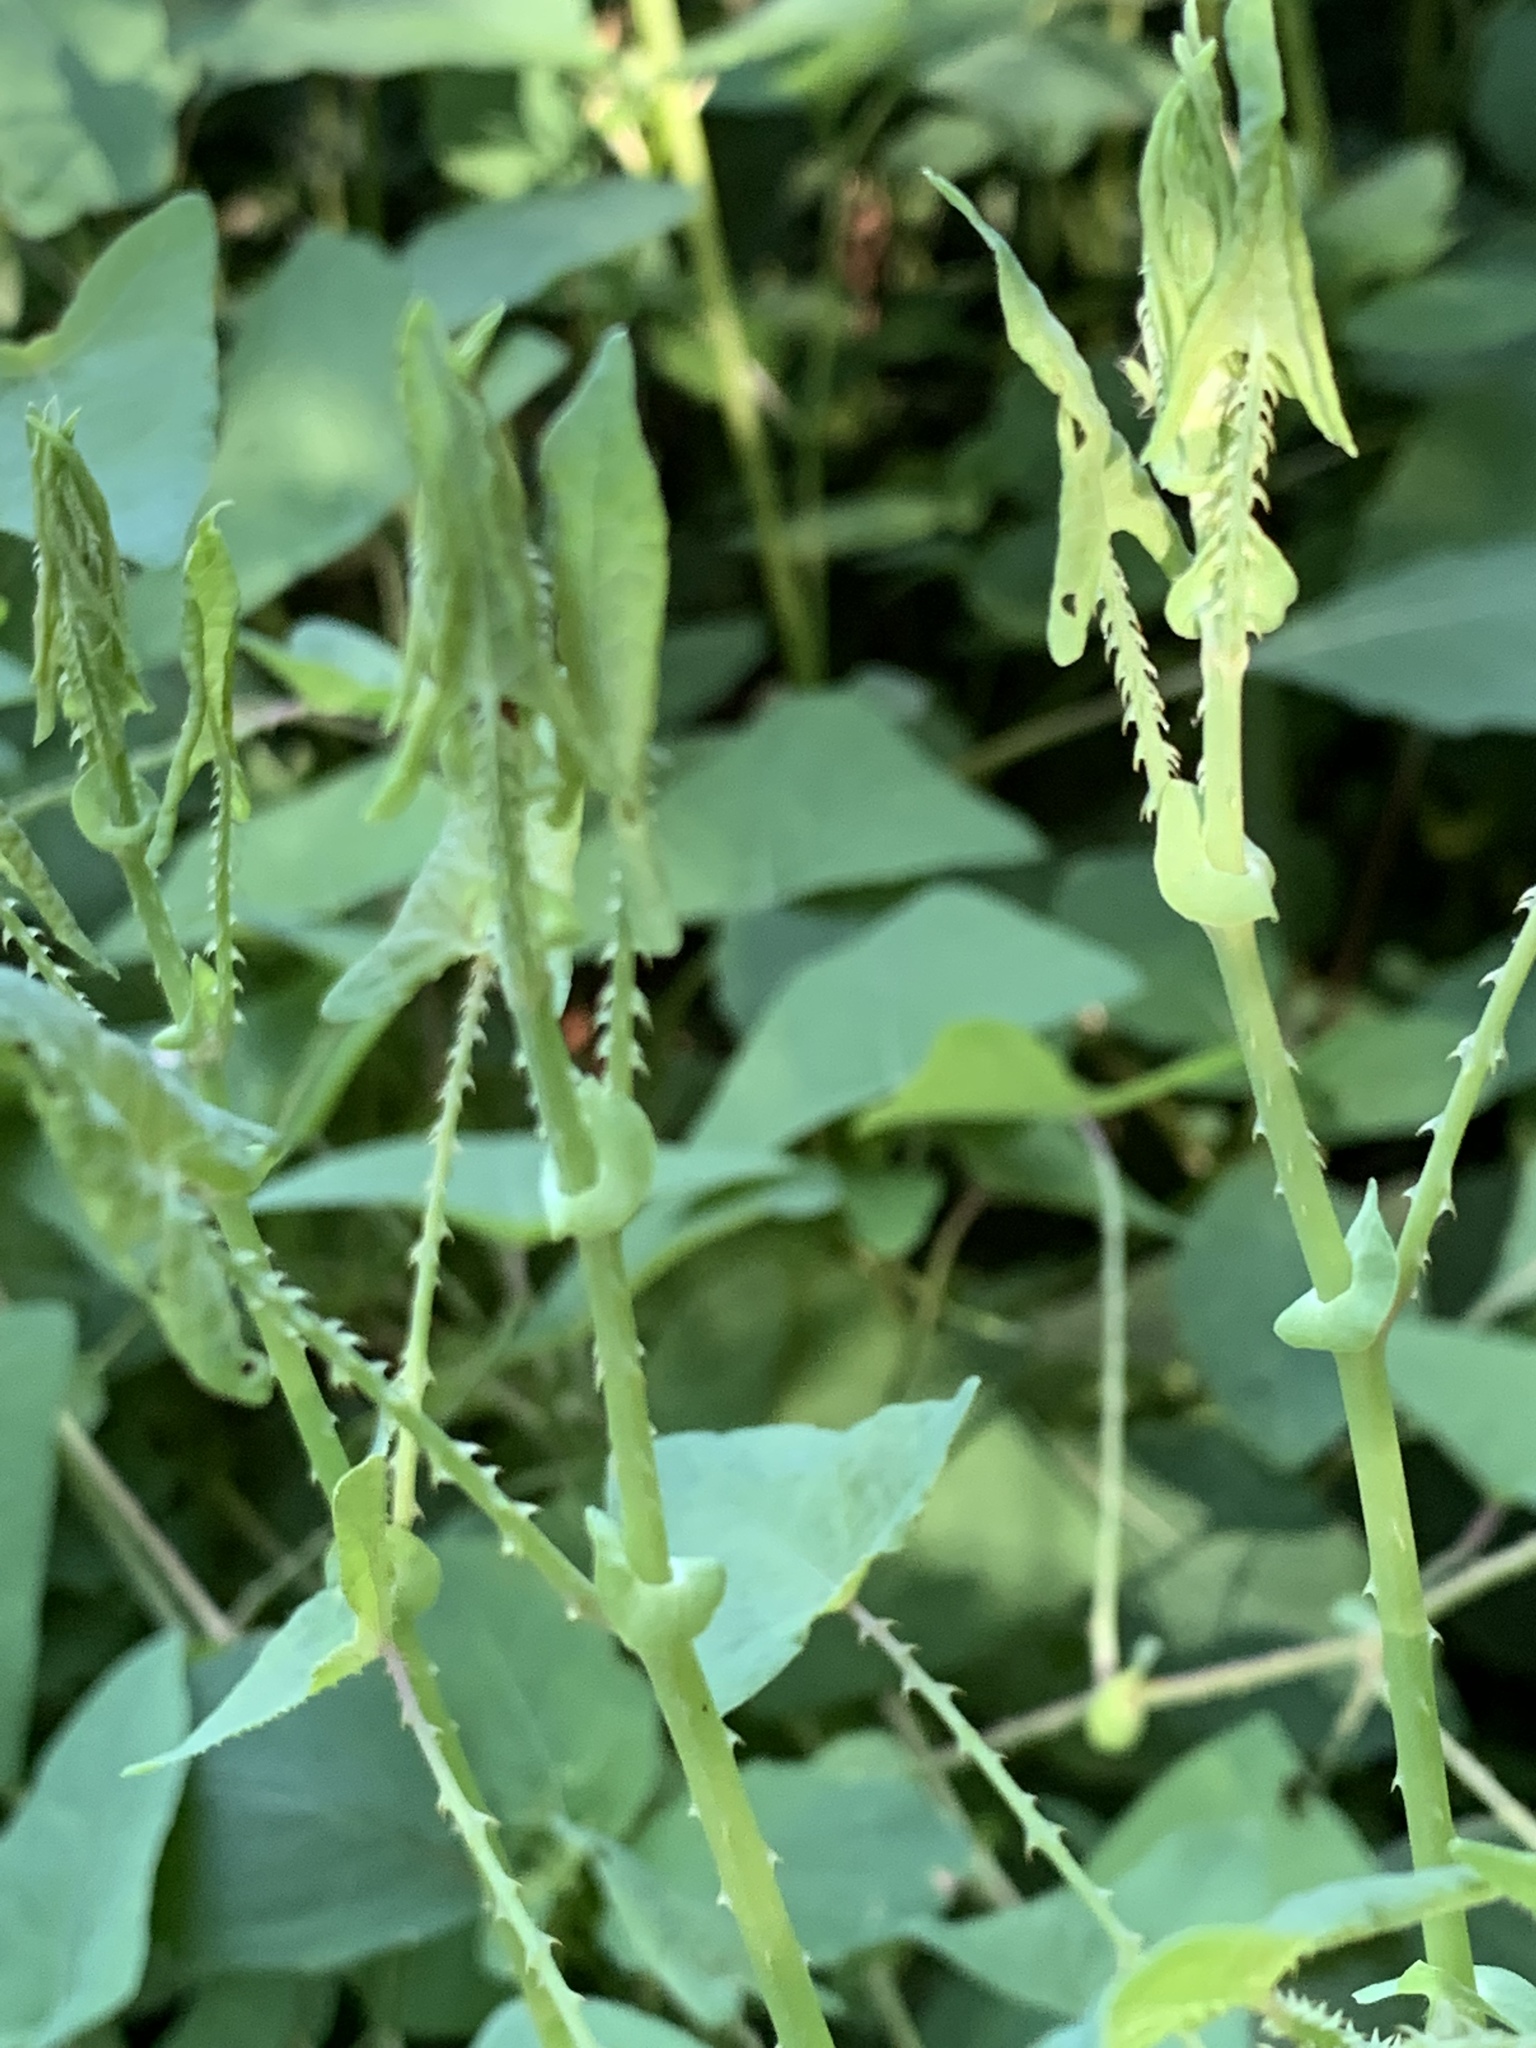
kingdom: Plantae
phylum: Tracheophyta
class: Magnoliopsida
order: Caryophyllales
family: Polygonaceae
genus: Persicaria
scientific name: Persicaria perfoliata
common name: Asiatic tearthumb
